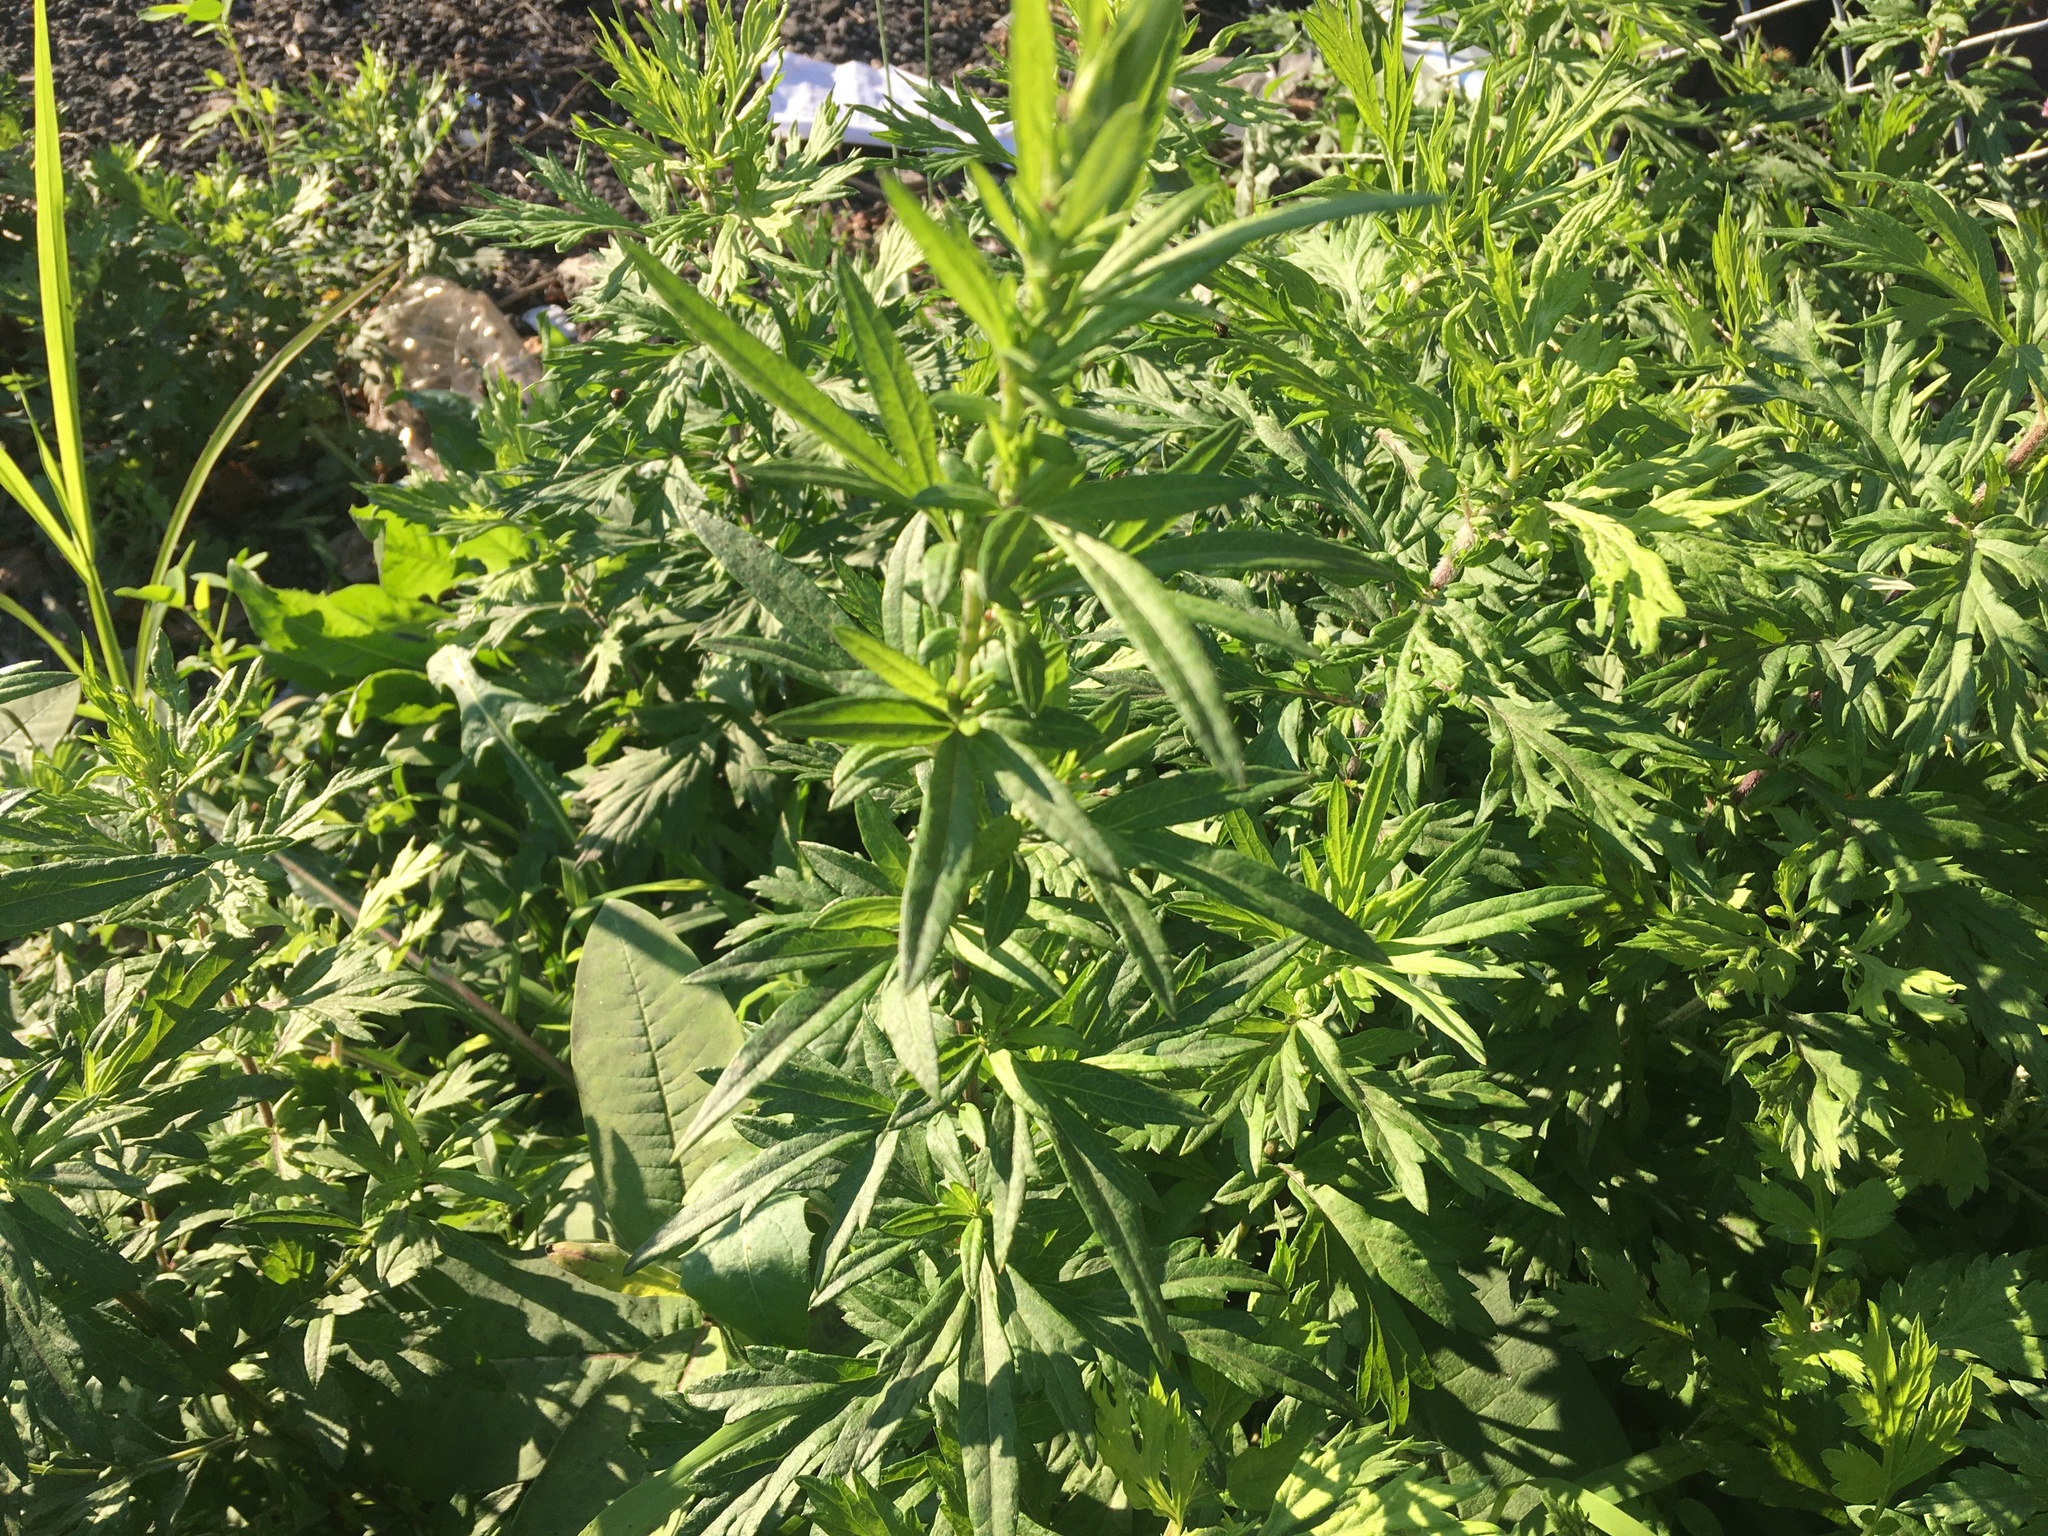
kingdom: Plantae
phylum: Tracheophyta
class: Magnoliopsida
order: Asterales
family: Asteraceae
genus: Artemisia
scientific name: Artemisia vulgaris
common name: Mugwort
